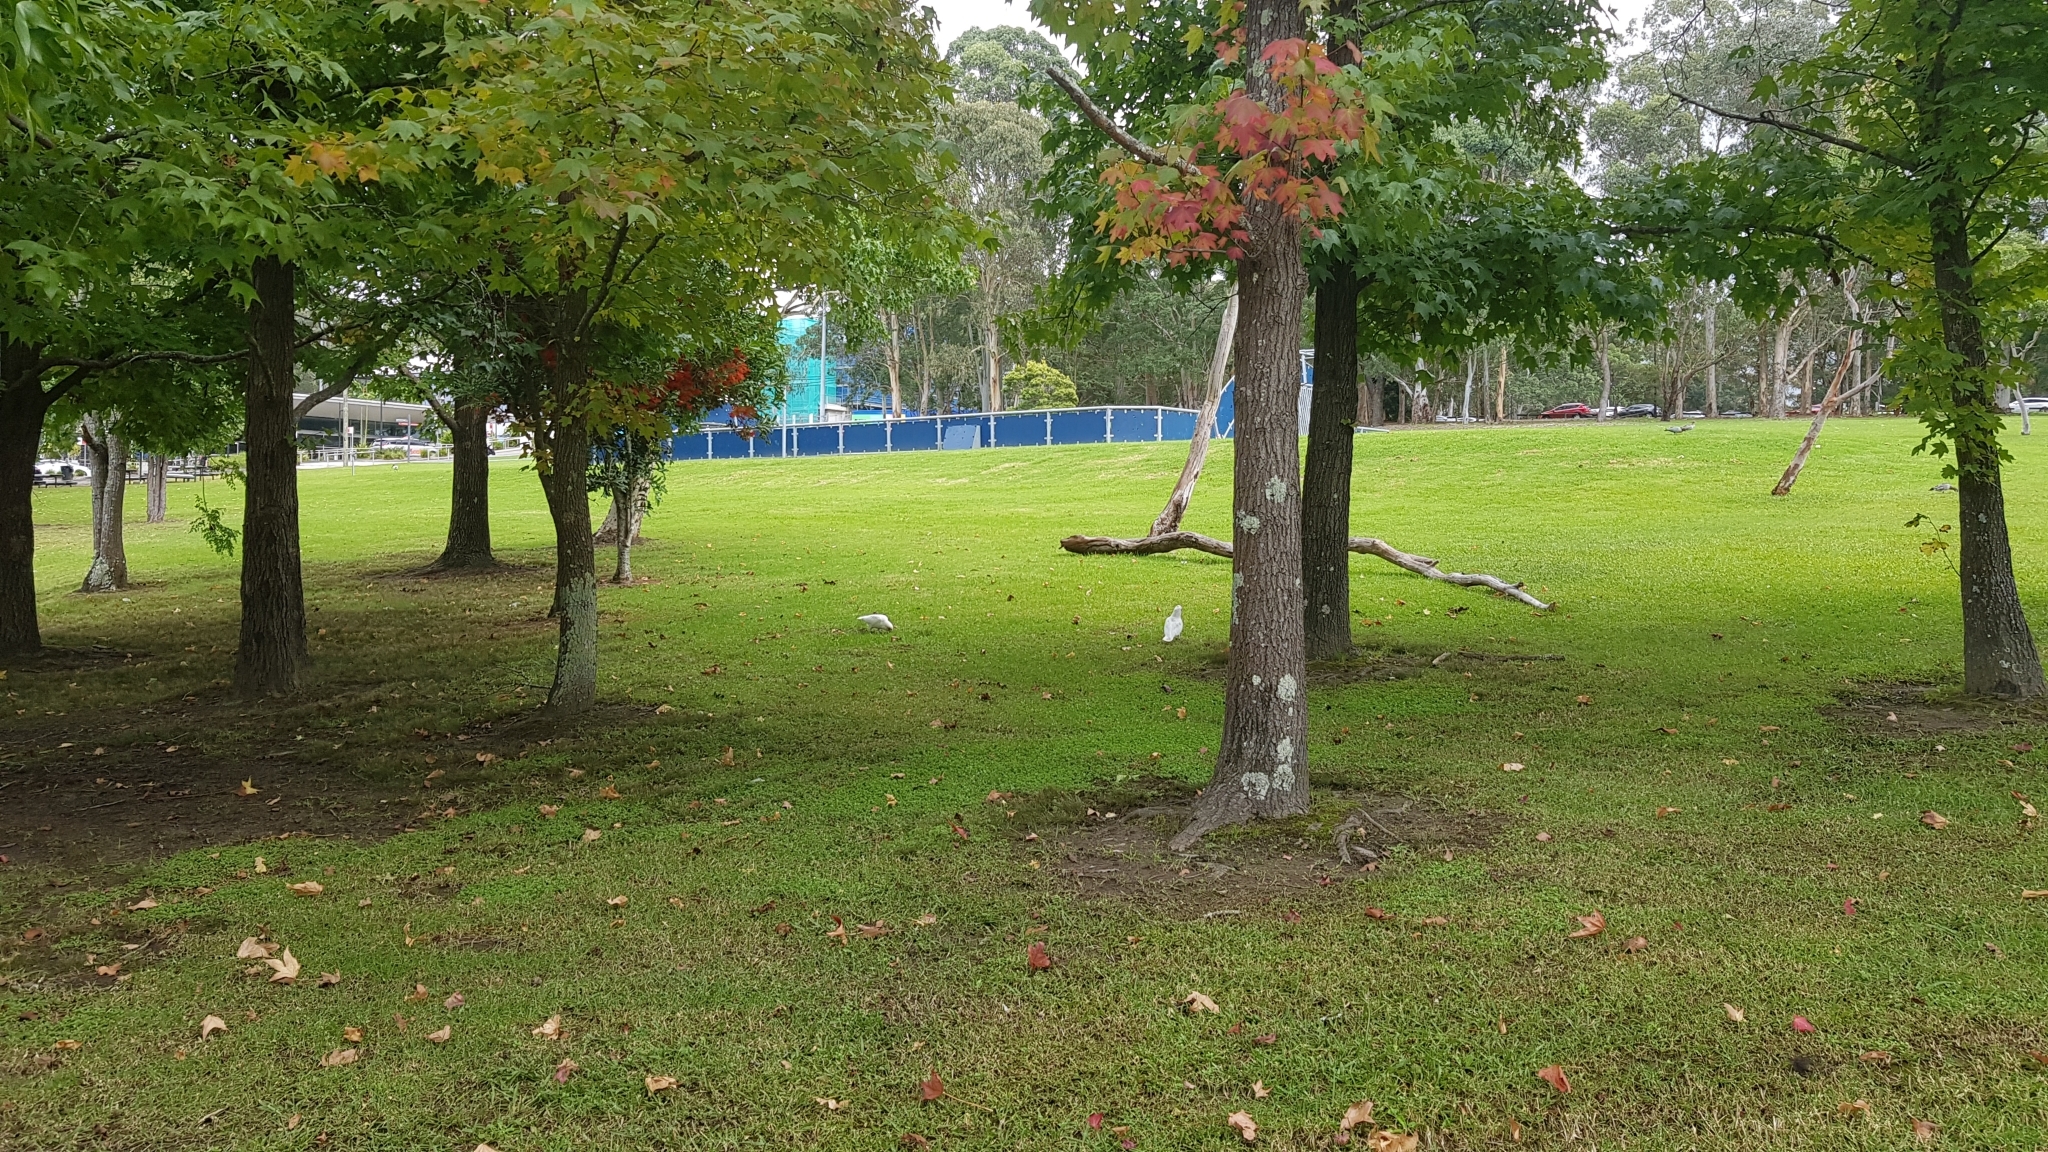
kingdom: Animalia
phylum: Chordata
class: Aves
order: Psittaciformes
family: Psittacidae
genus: Cacatua
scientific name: Cacatua tenuirostris
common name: Long-billed corella
